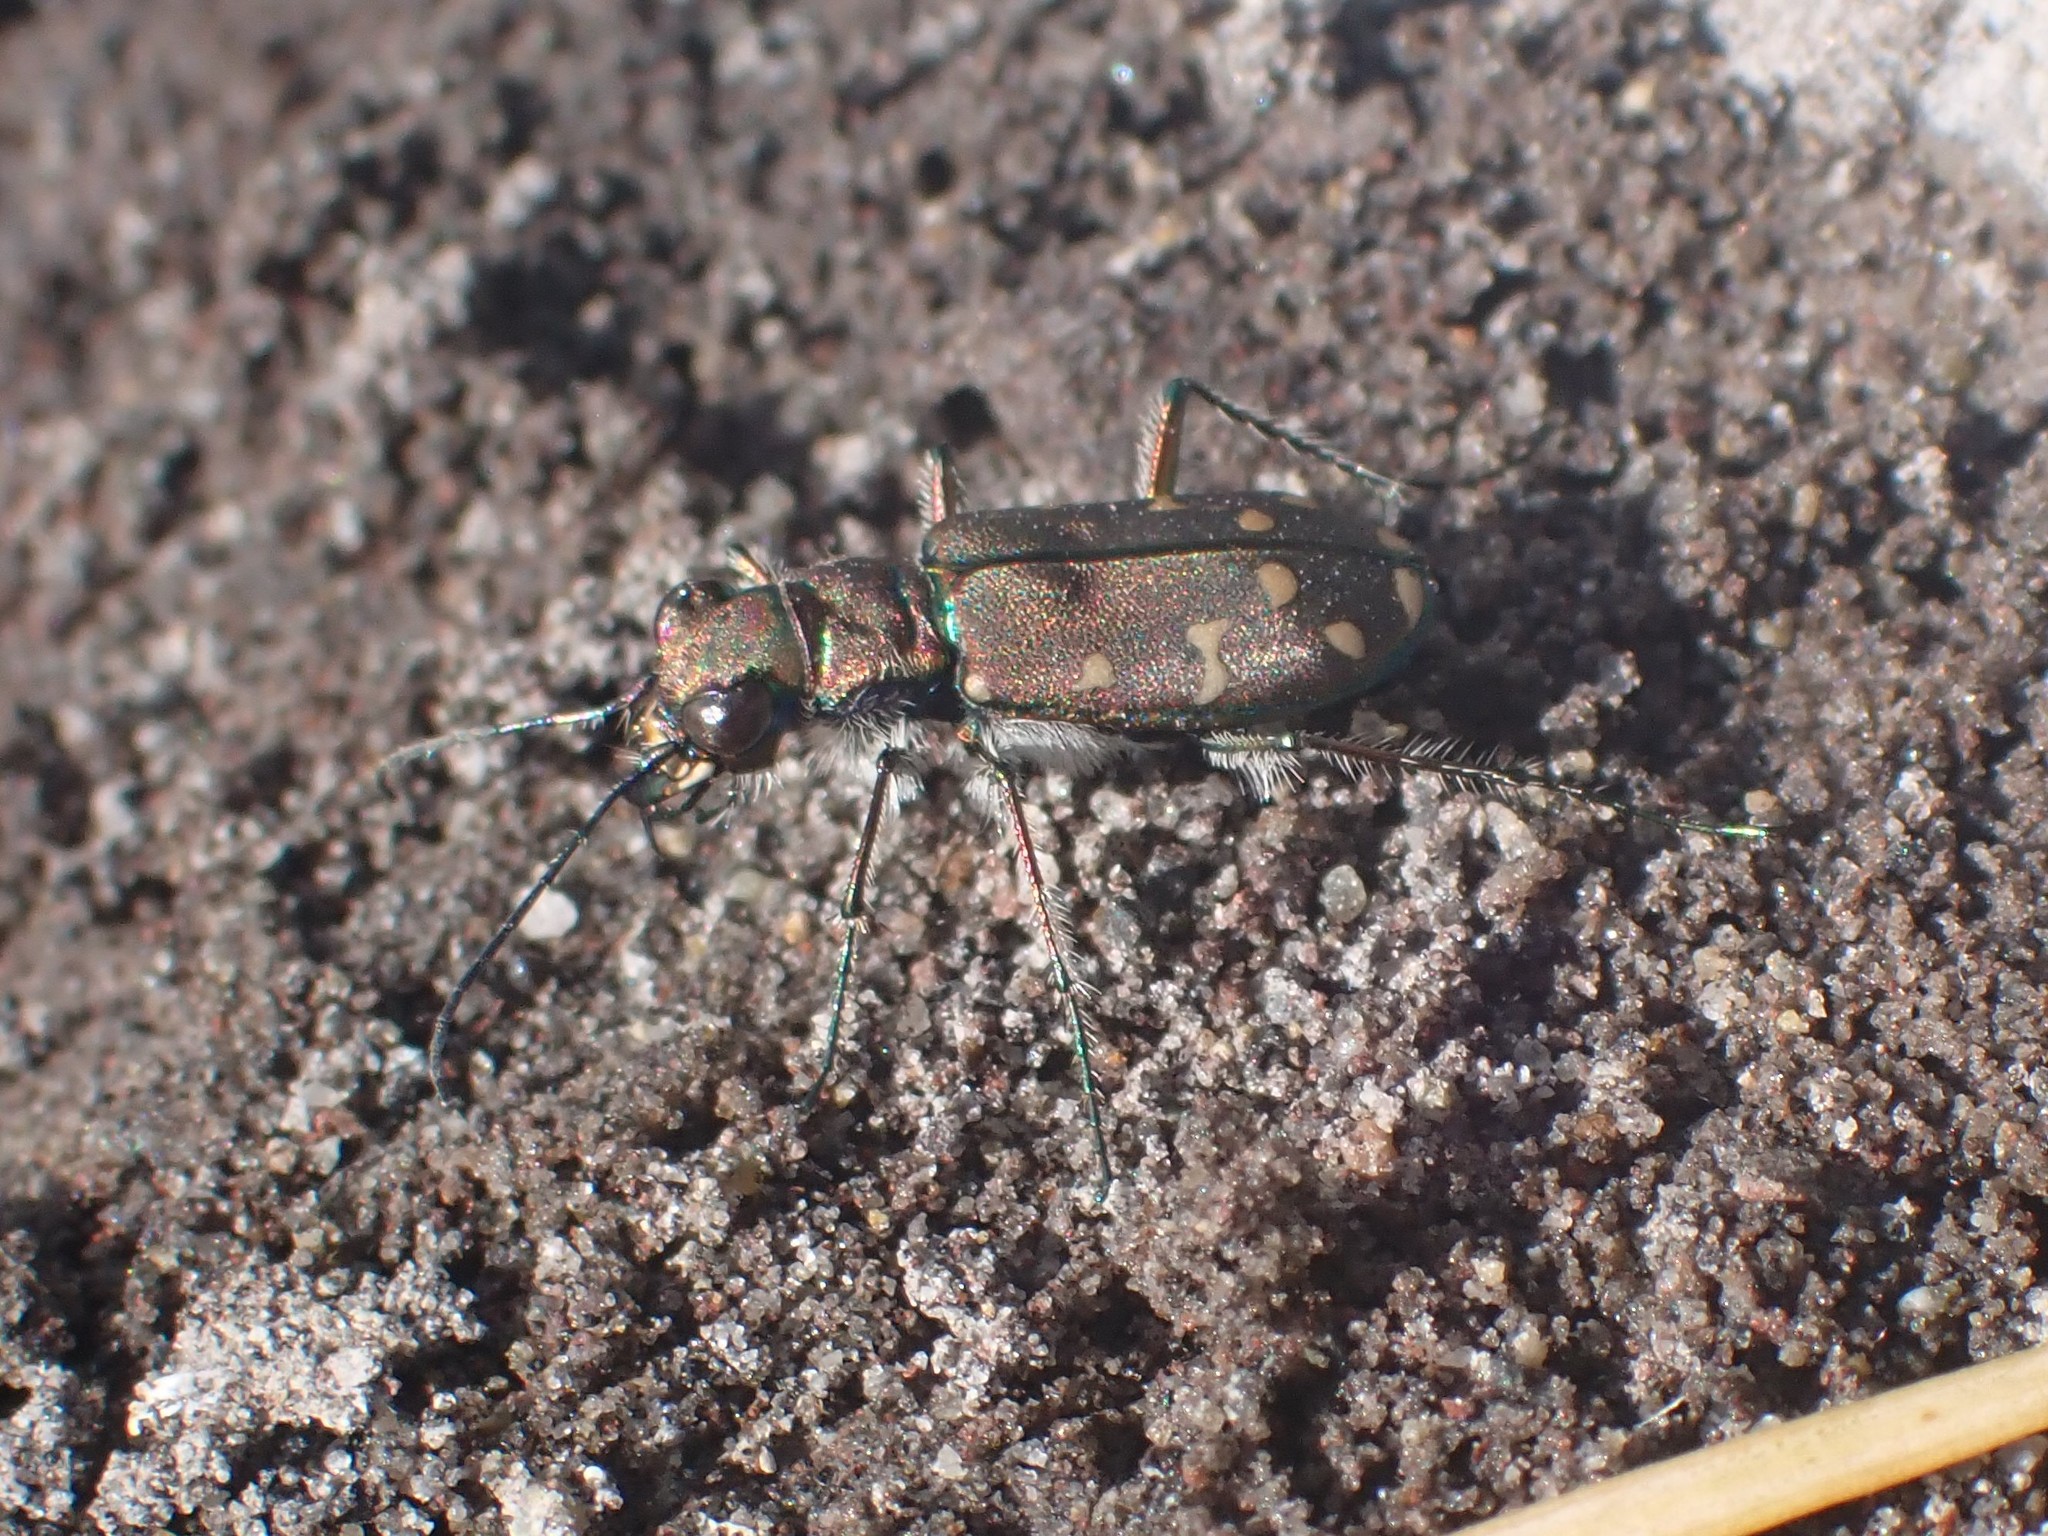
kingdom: Animalia
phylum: Arthropoda
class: Insecta
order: Coleoptera
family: Carabidae
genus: Cicindela
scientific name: Cicindela oregona
